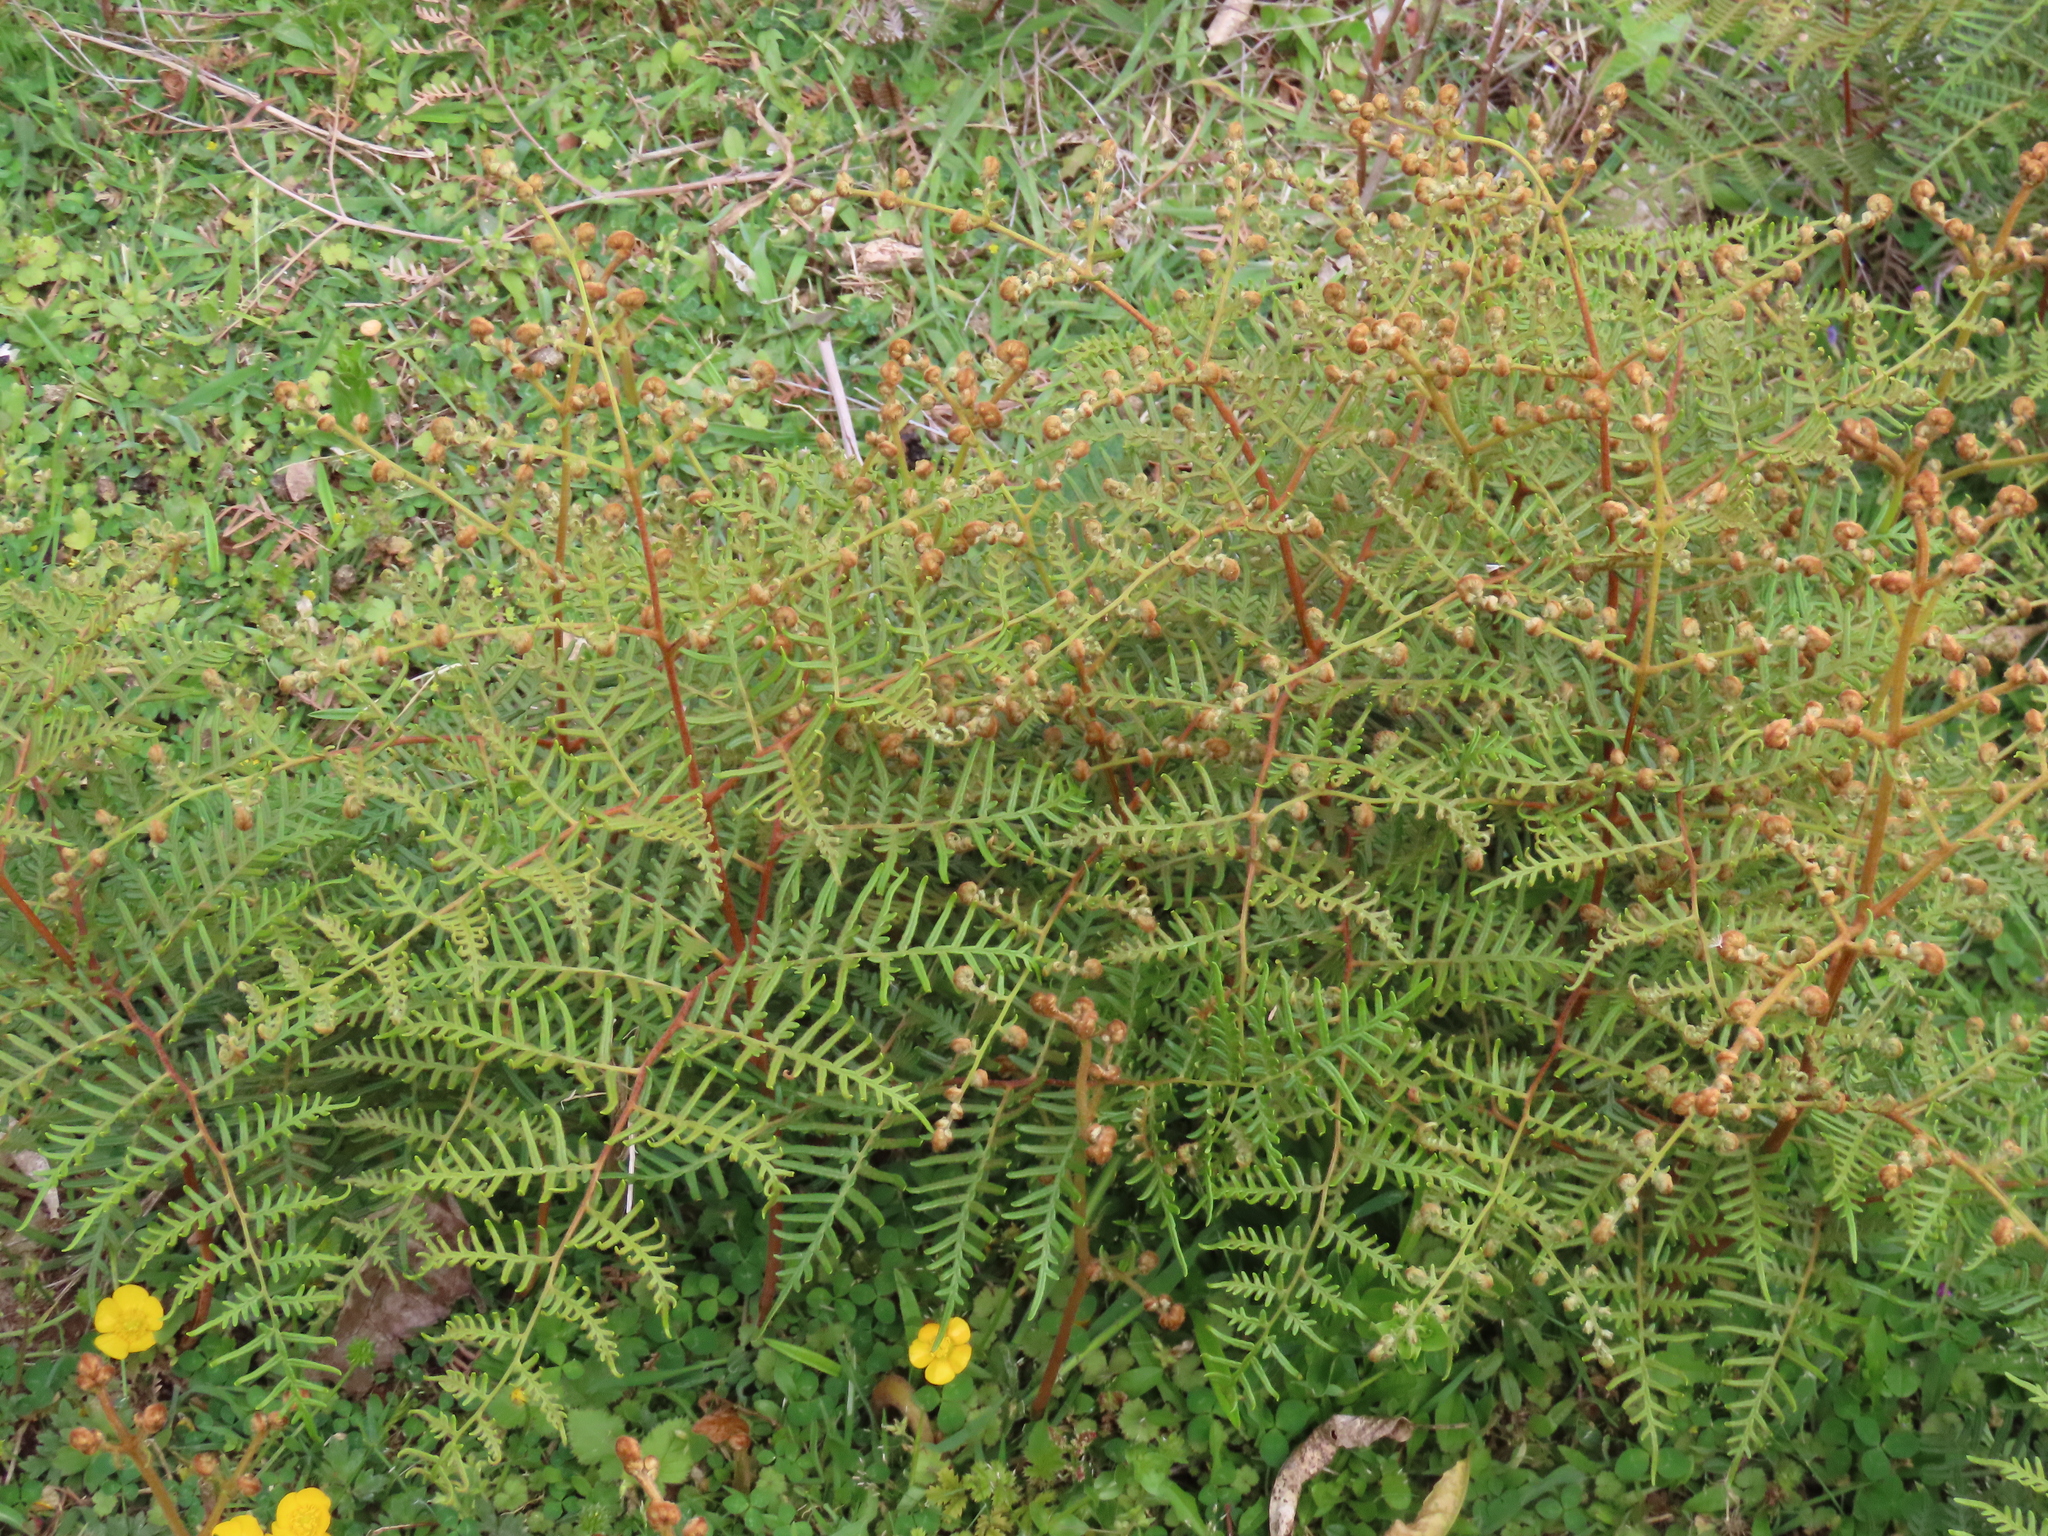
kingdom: Plantae
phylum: Tracheophyta
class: Polypodiopsida
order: Polypodiales
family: Dennstaedtiaceae
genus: Pteridium
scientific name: Pteridium esculentum
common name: Bracken fern
